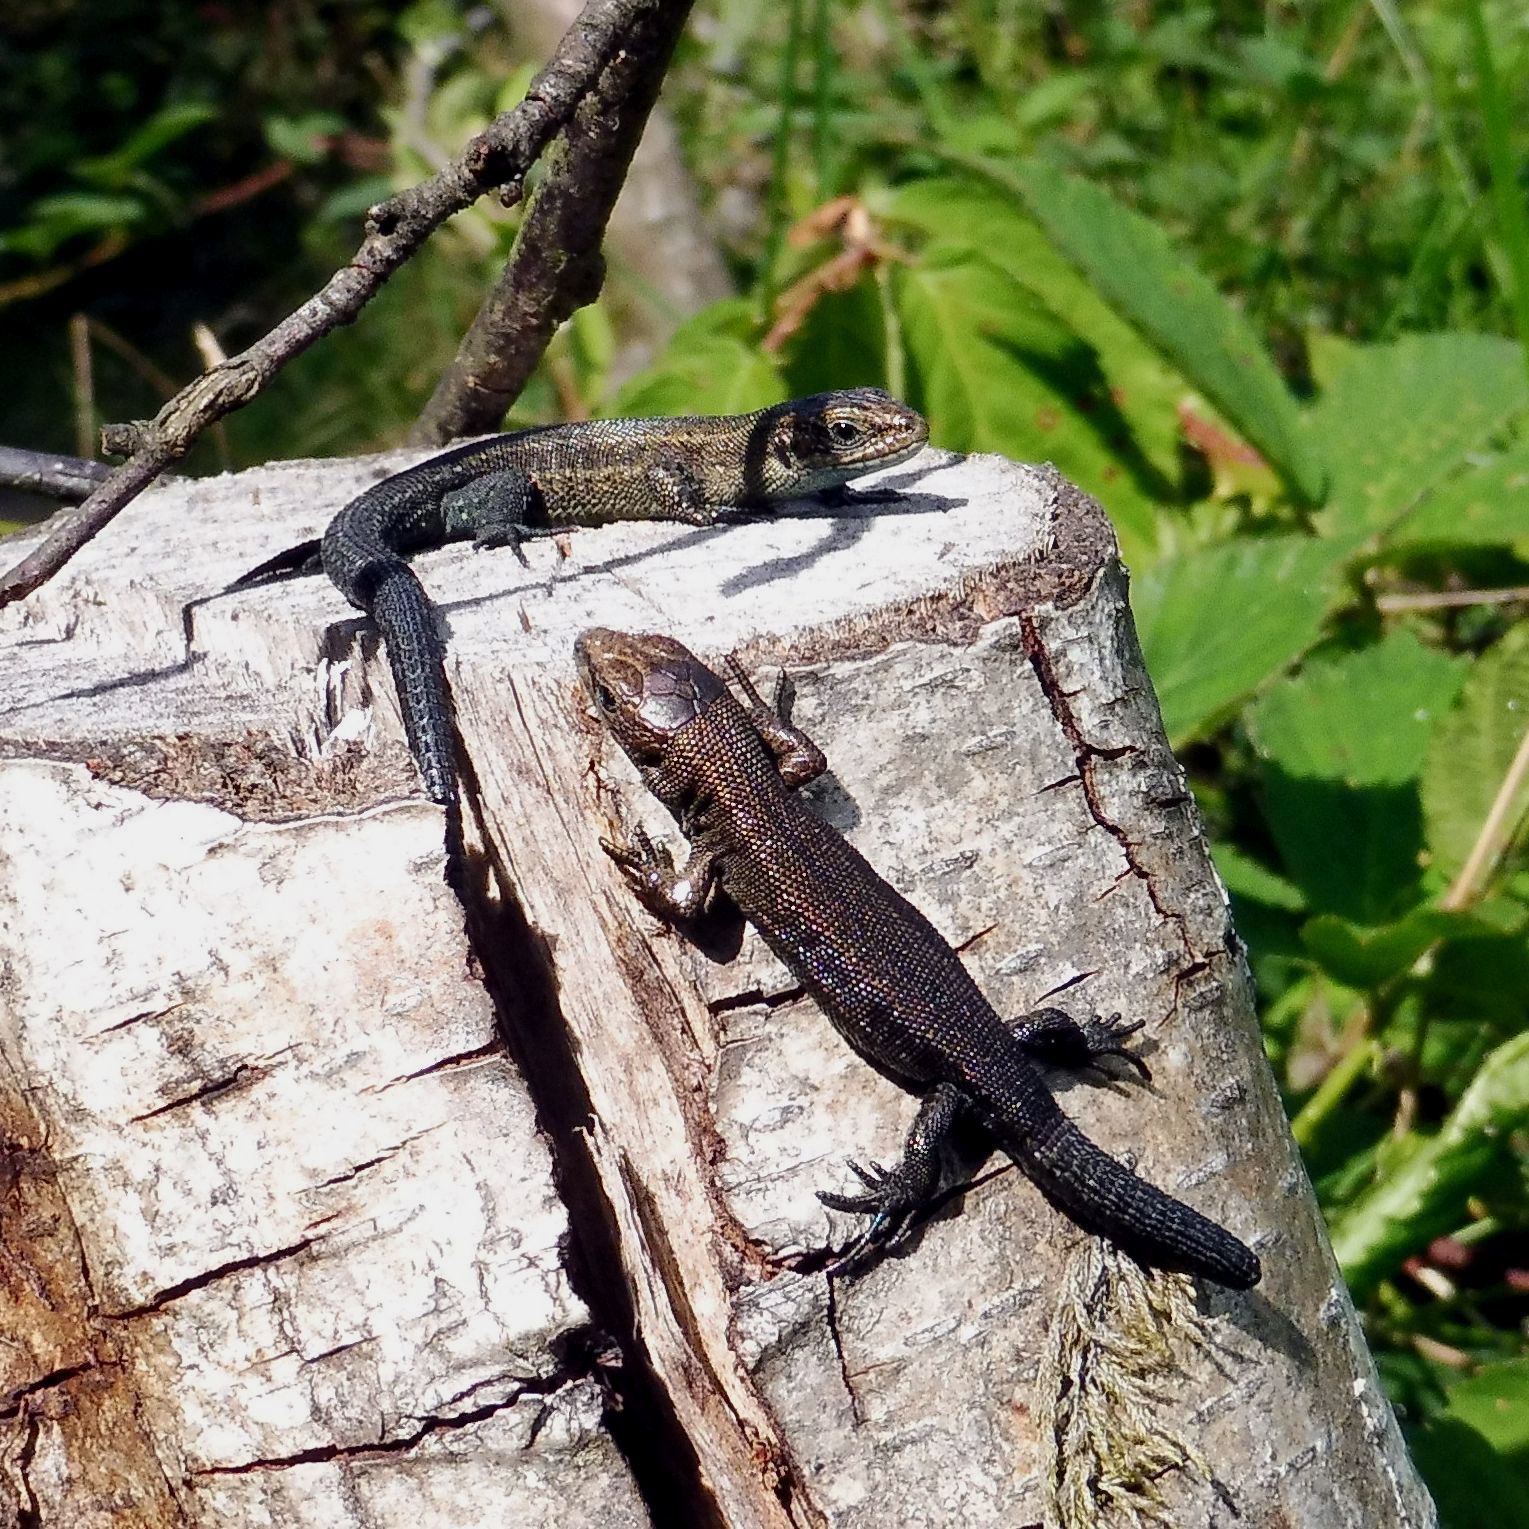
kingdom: Animalia
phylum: Chordata
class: Squamata
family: Lacertidae
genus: Zootoca
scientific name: Zootoca vivipara
